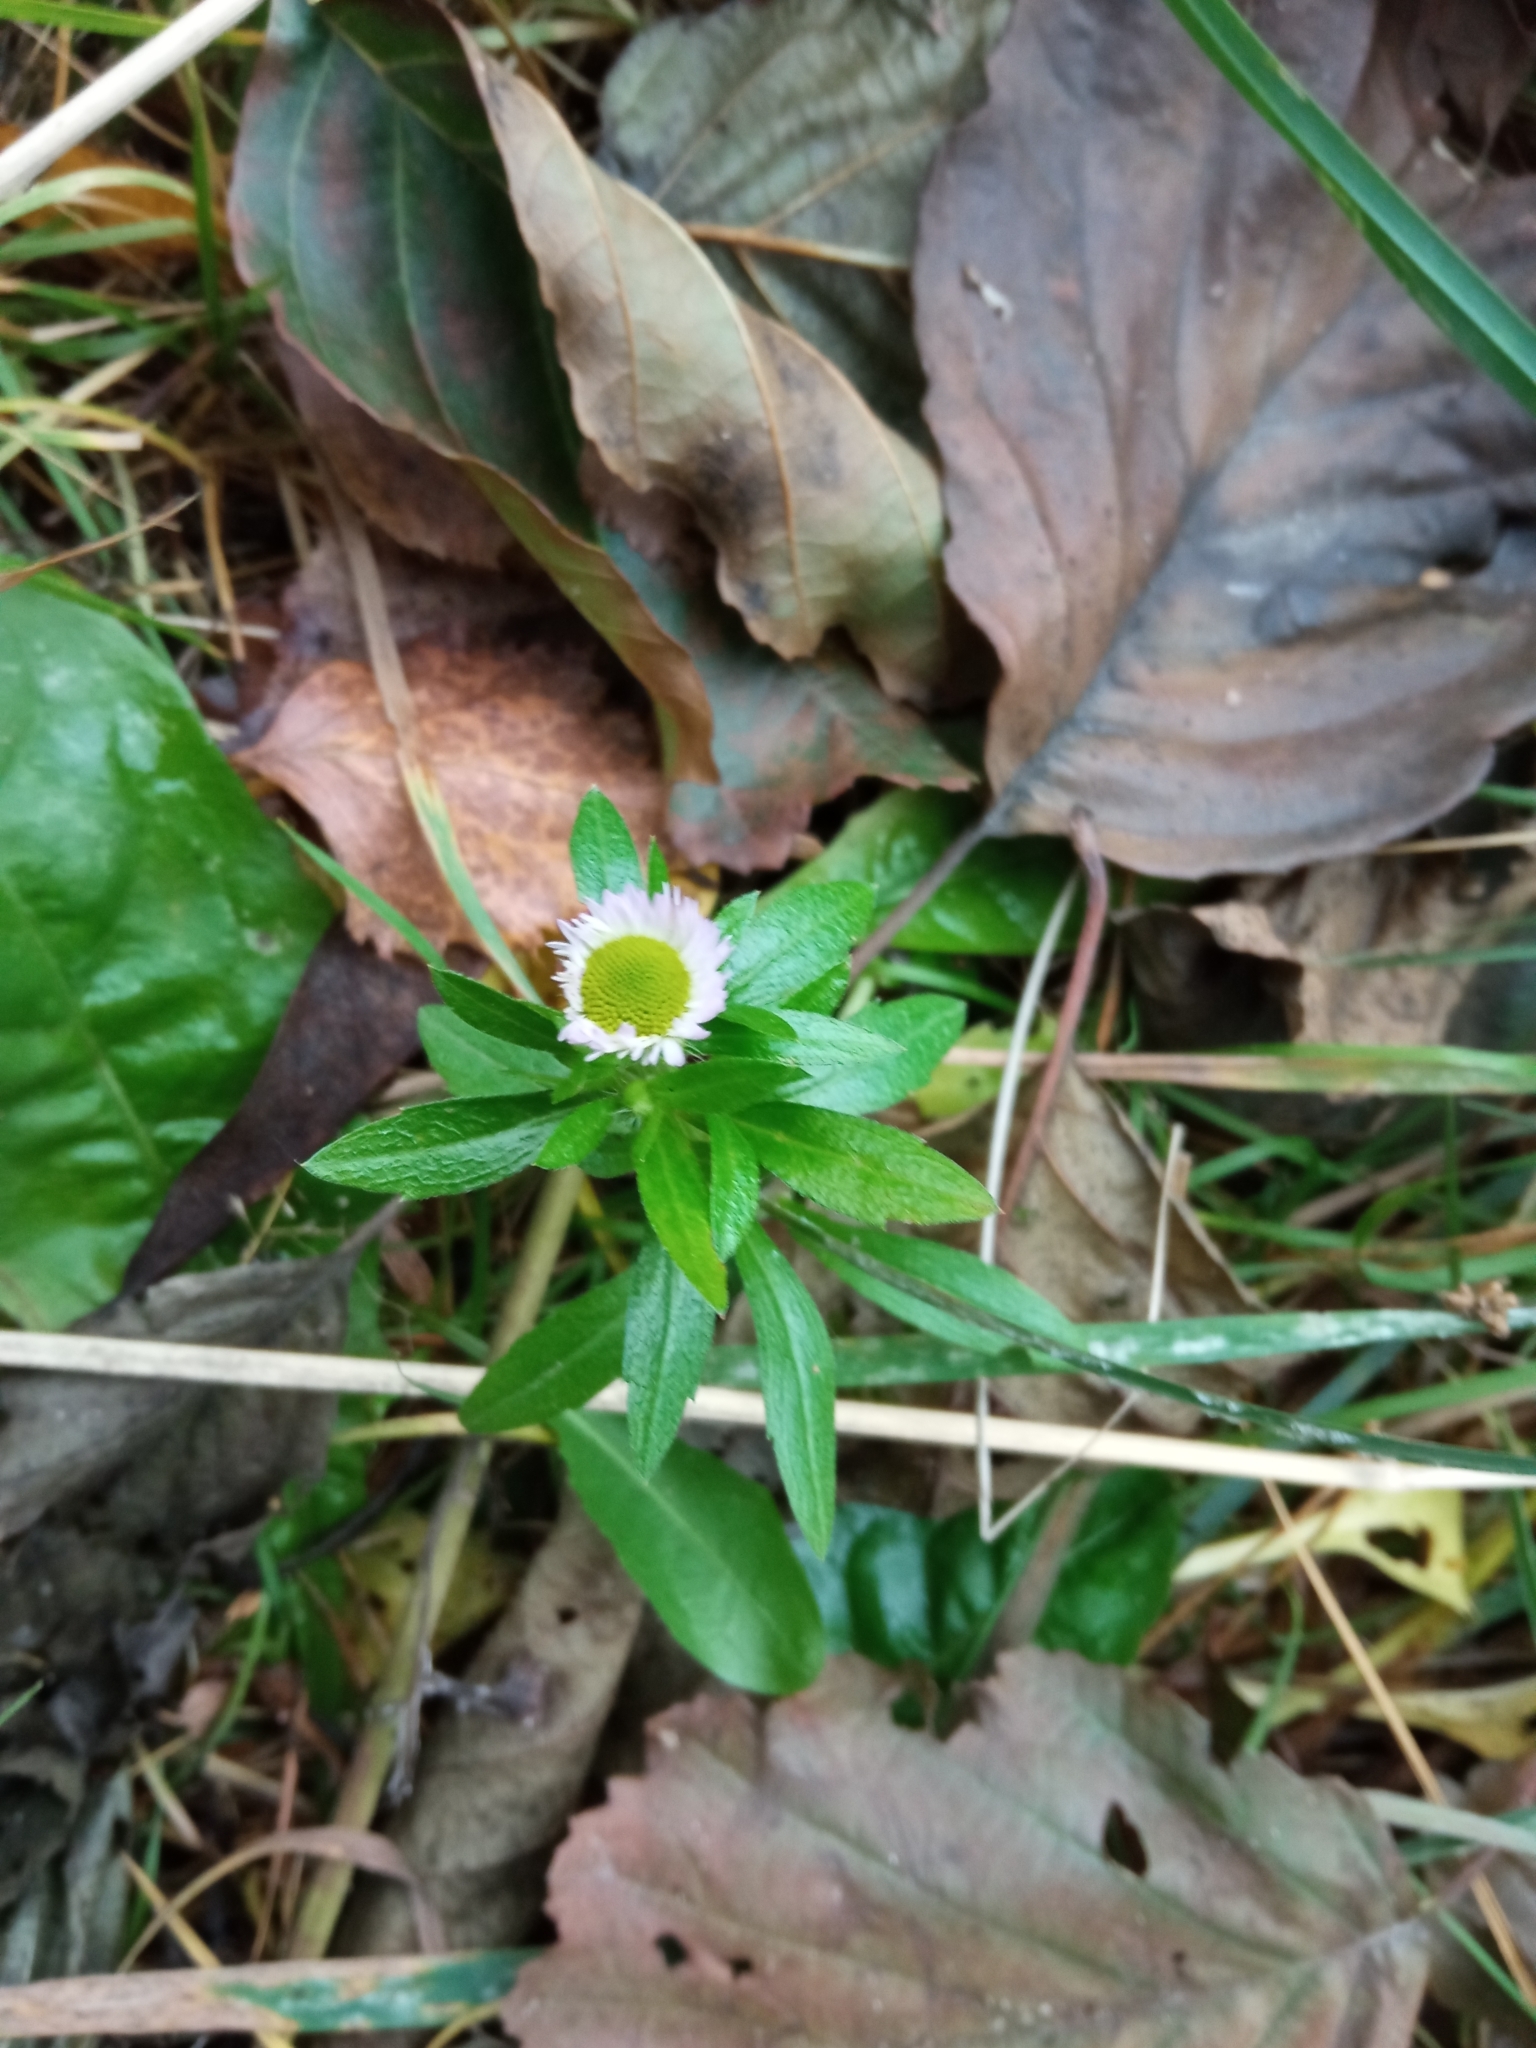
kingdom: Plantae
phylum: Tracheophyta
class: Magnoliopsida
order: Asterales
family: Asteraceae
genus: Erigeron
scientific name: Erigeron annuus
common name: Tall fleabane
